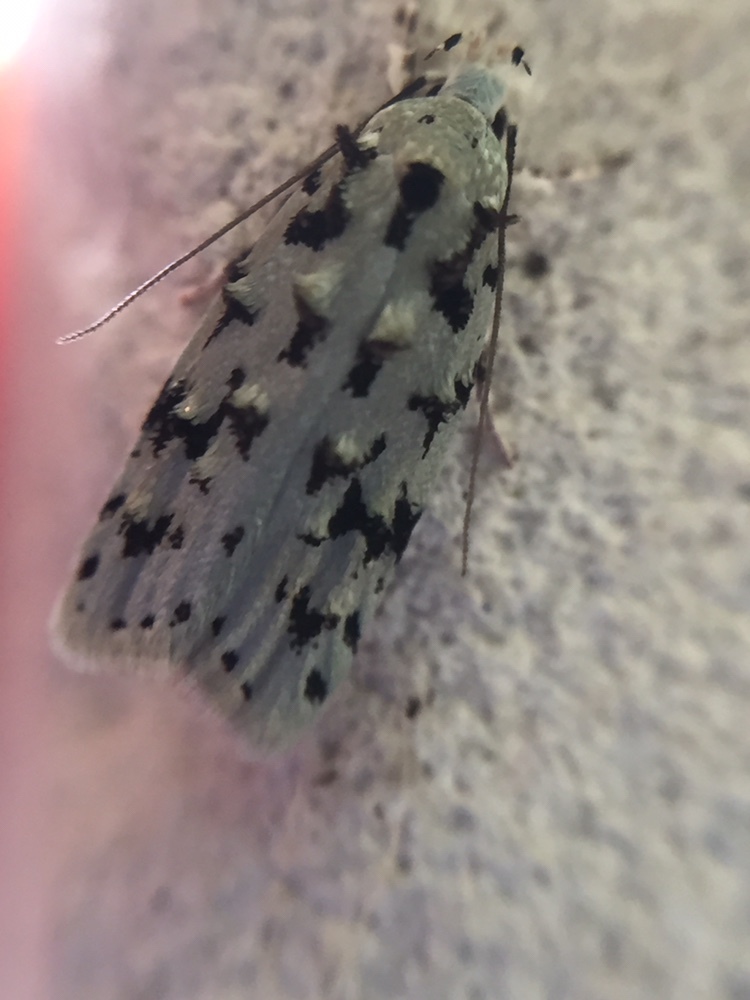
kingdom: Animalia
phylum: Arthropoda
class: Insecta
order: Lepidoptera
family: Oecophoridae
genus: Izatha
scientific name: Izatha peroneanella
